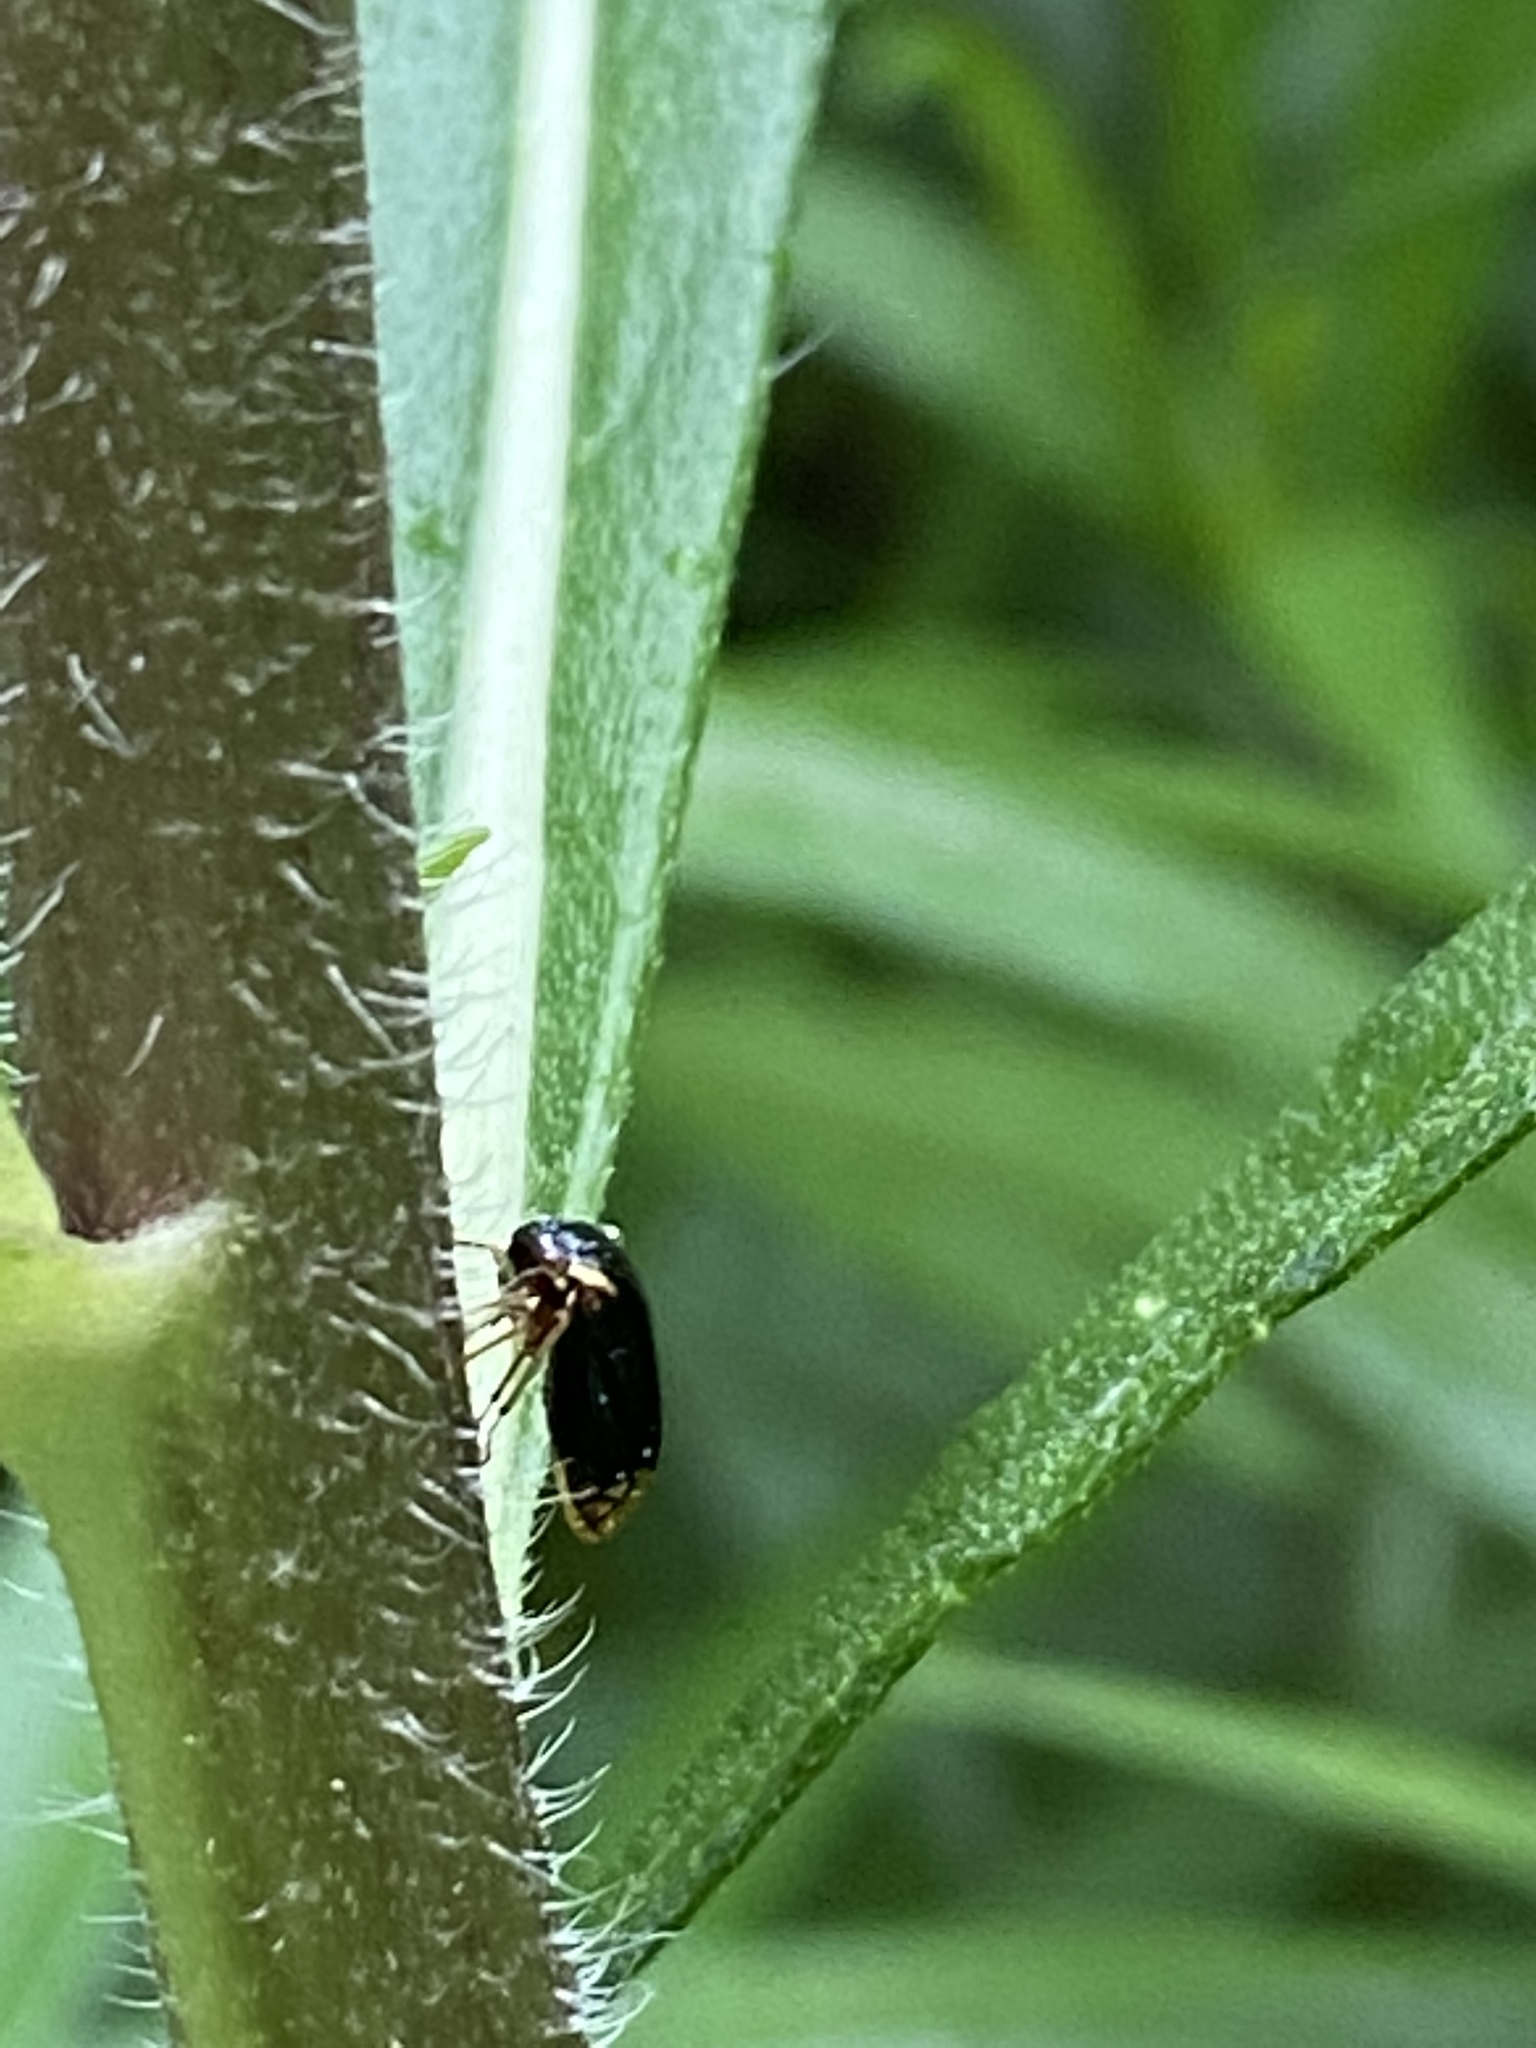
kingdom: Animalia
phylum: Arthropoda
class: Insecta
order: Hemiptera
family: Membracidae
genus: Acutalis
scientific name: Acutalis tartarea
